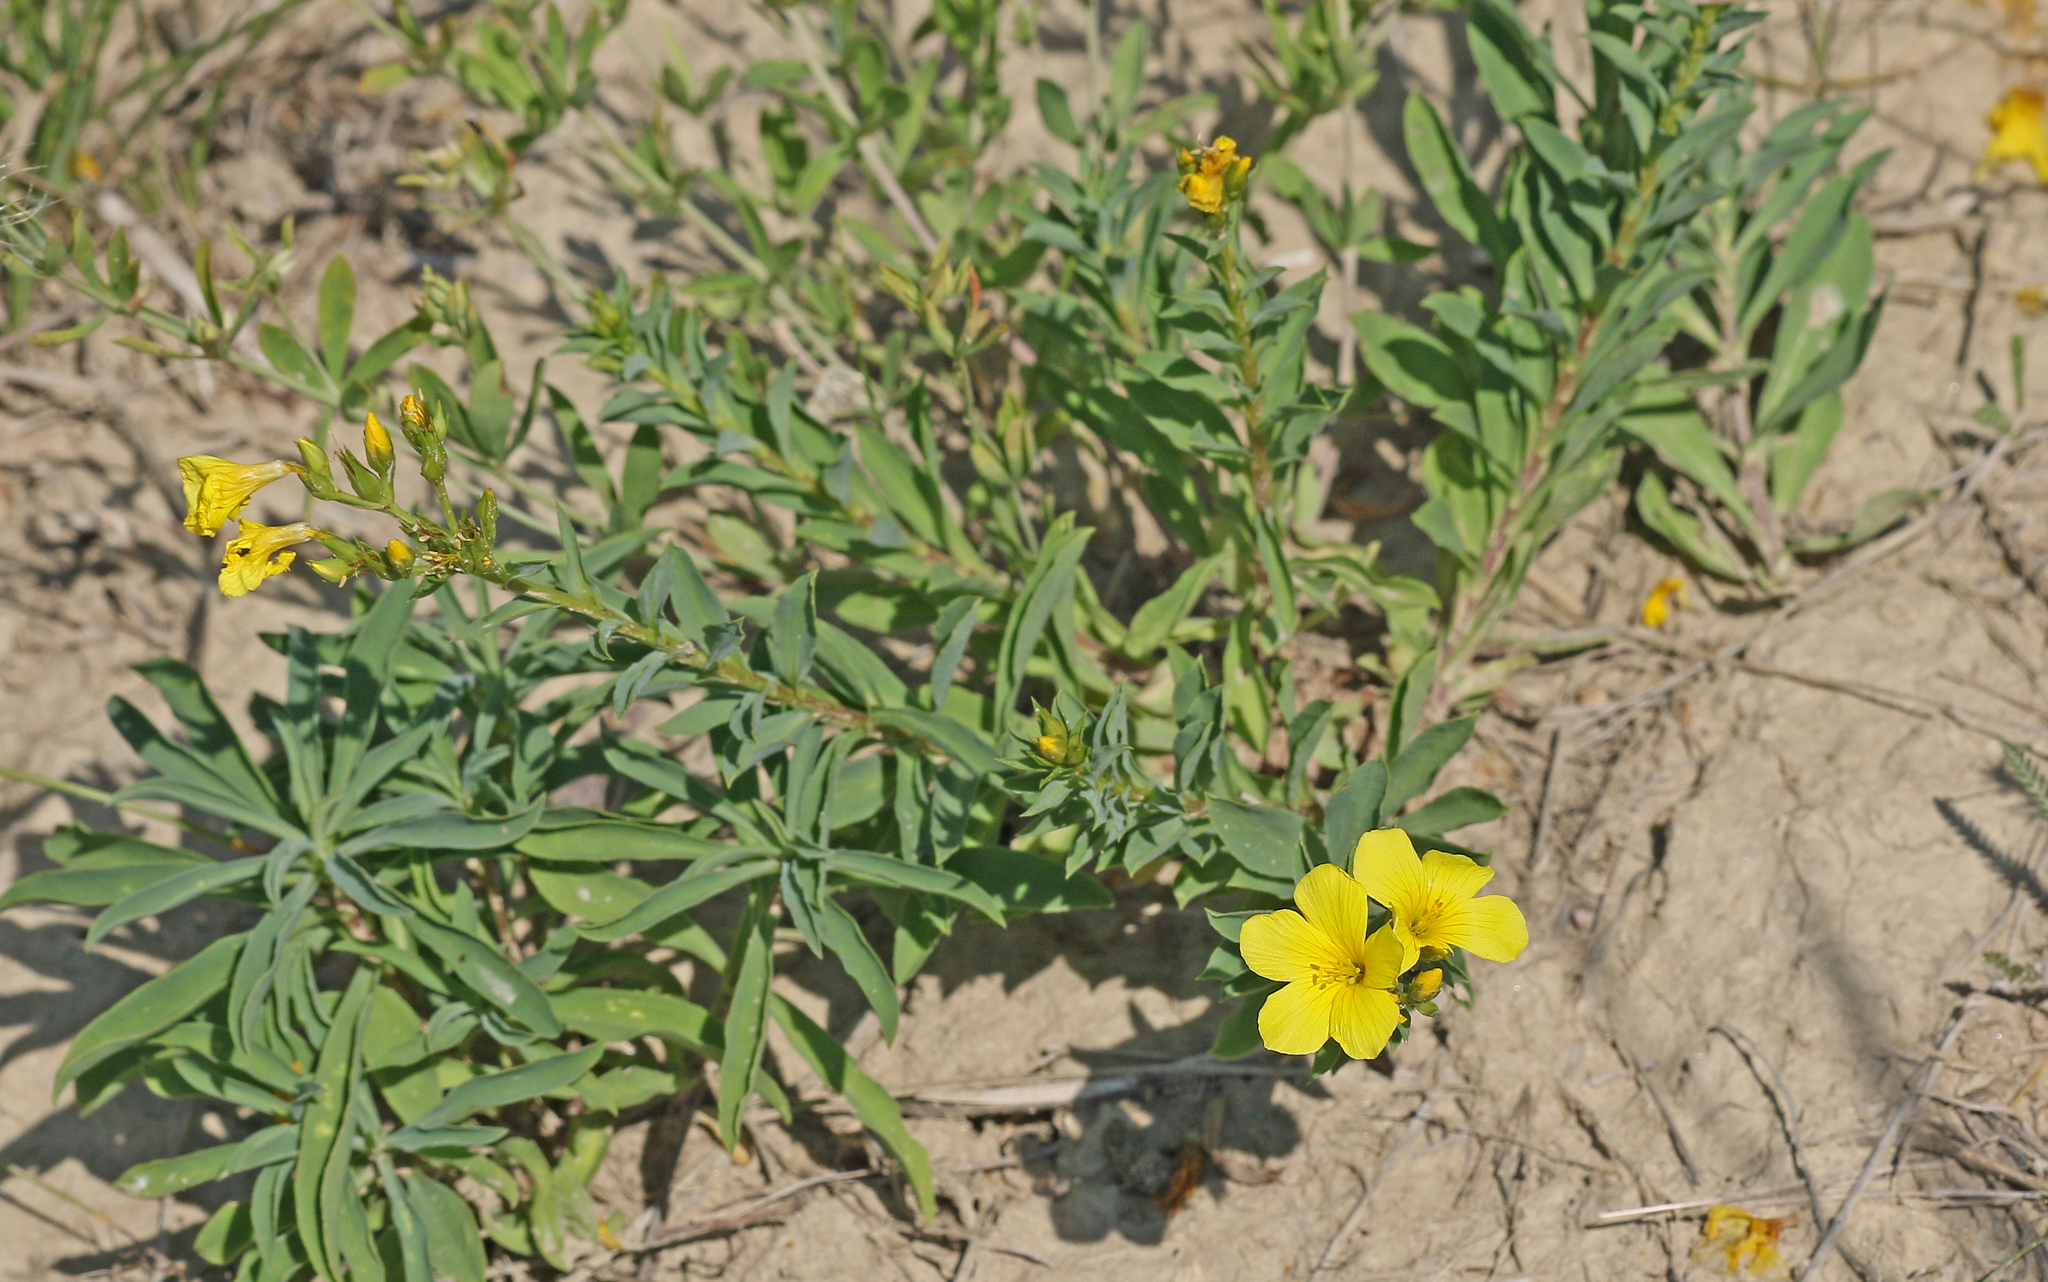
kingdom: Plantae
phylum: Tracheophyta
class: Magnoliopsida
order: Malpighiales
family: Linaceae
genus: Linum
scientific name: Linum flavum
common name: Yellow flax
